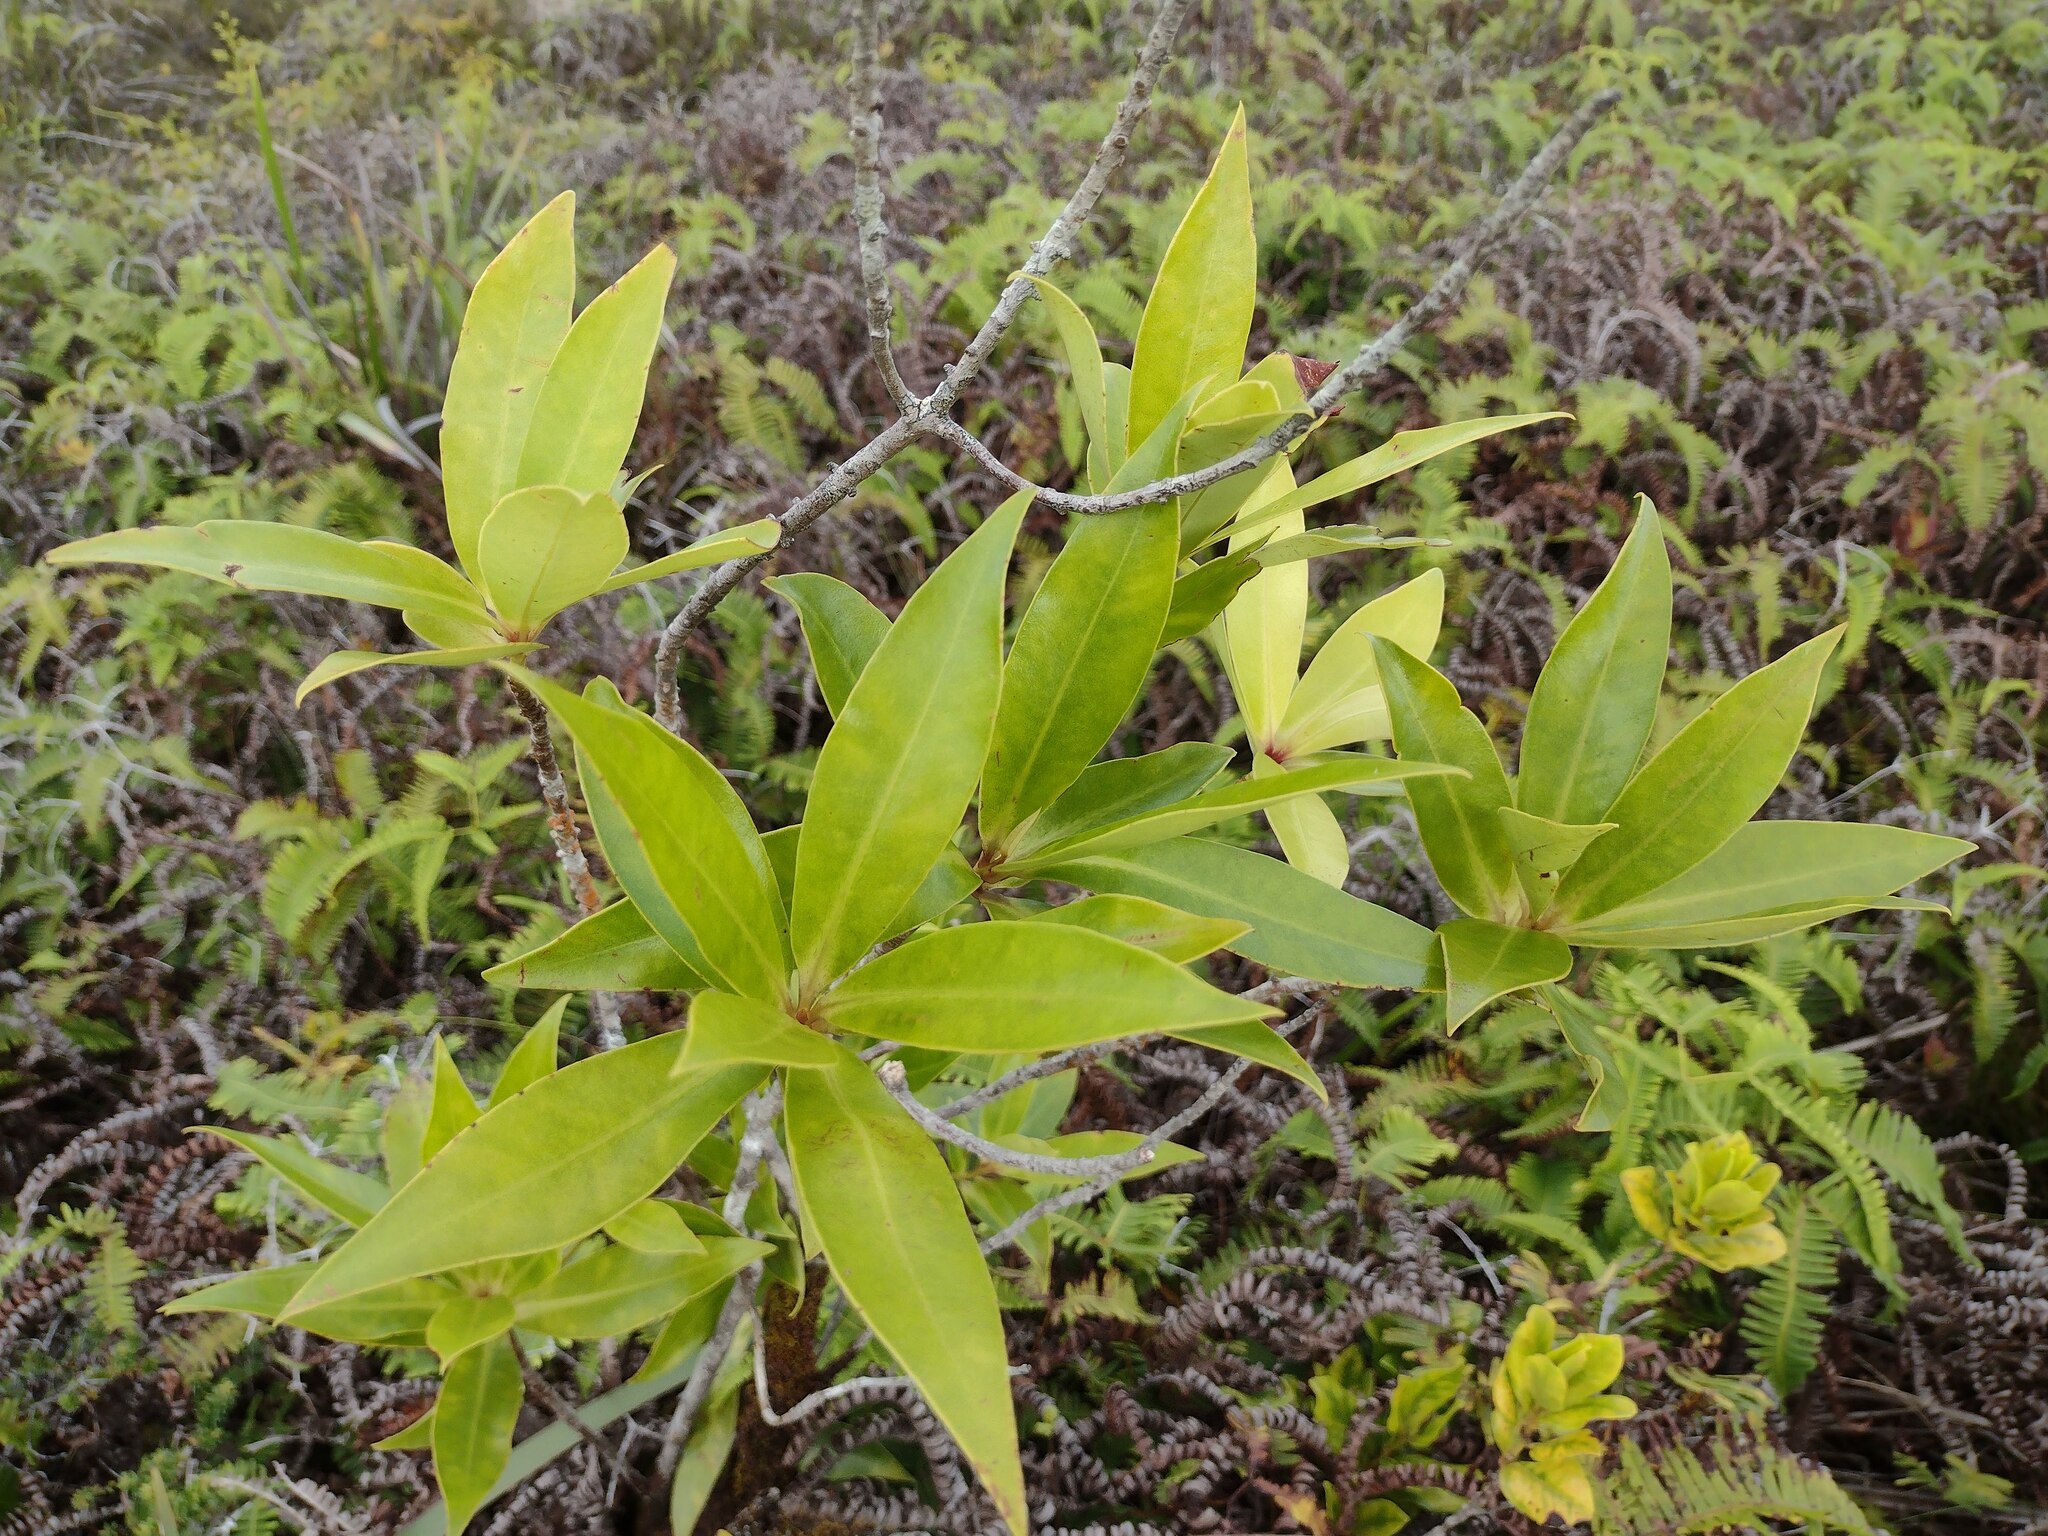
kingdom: Plantae
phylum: Tracheophyta
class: Magnoliopsida
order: Ericales
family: Primulaceae
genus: Myrsine
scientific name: Myrsine lessertiana
